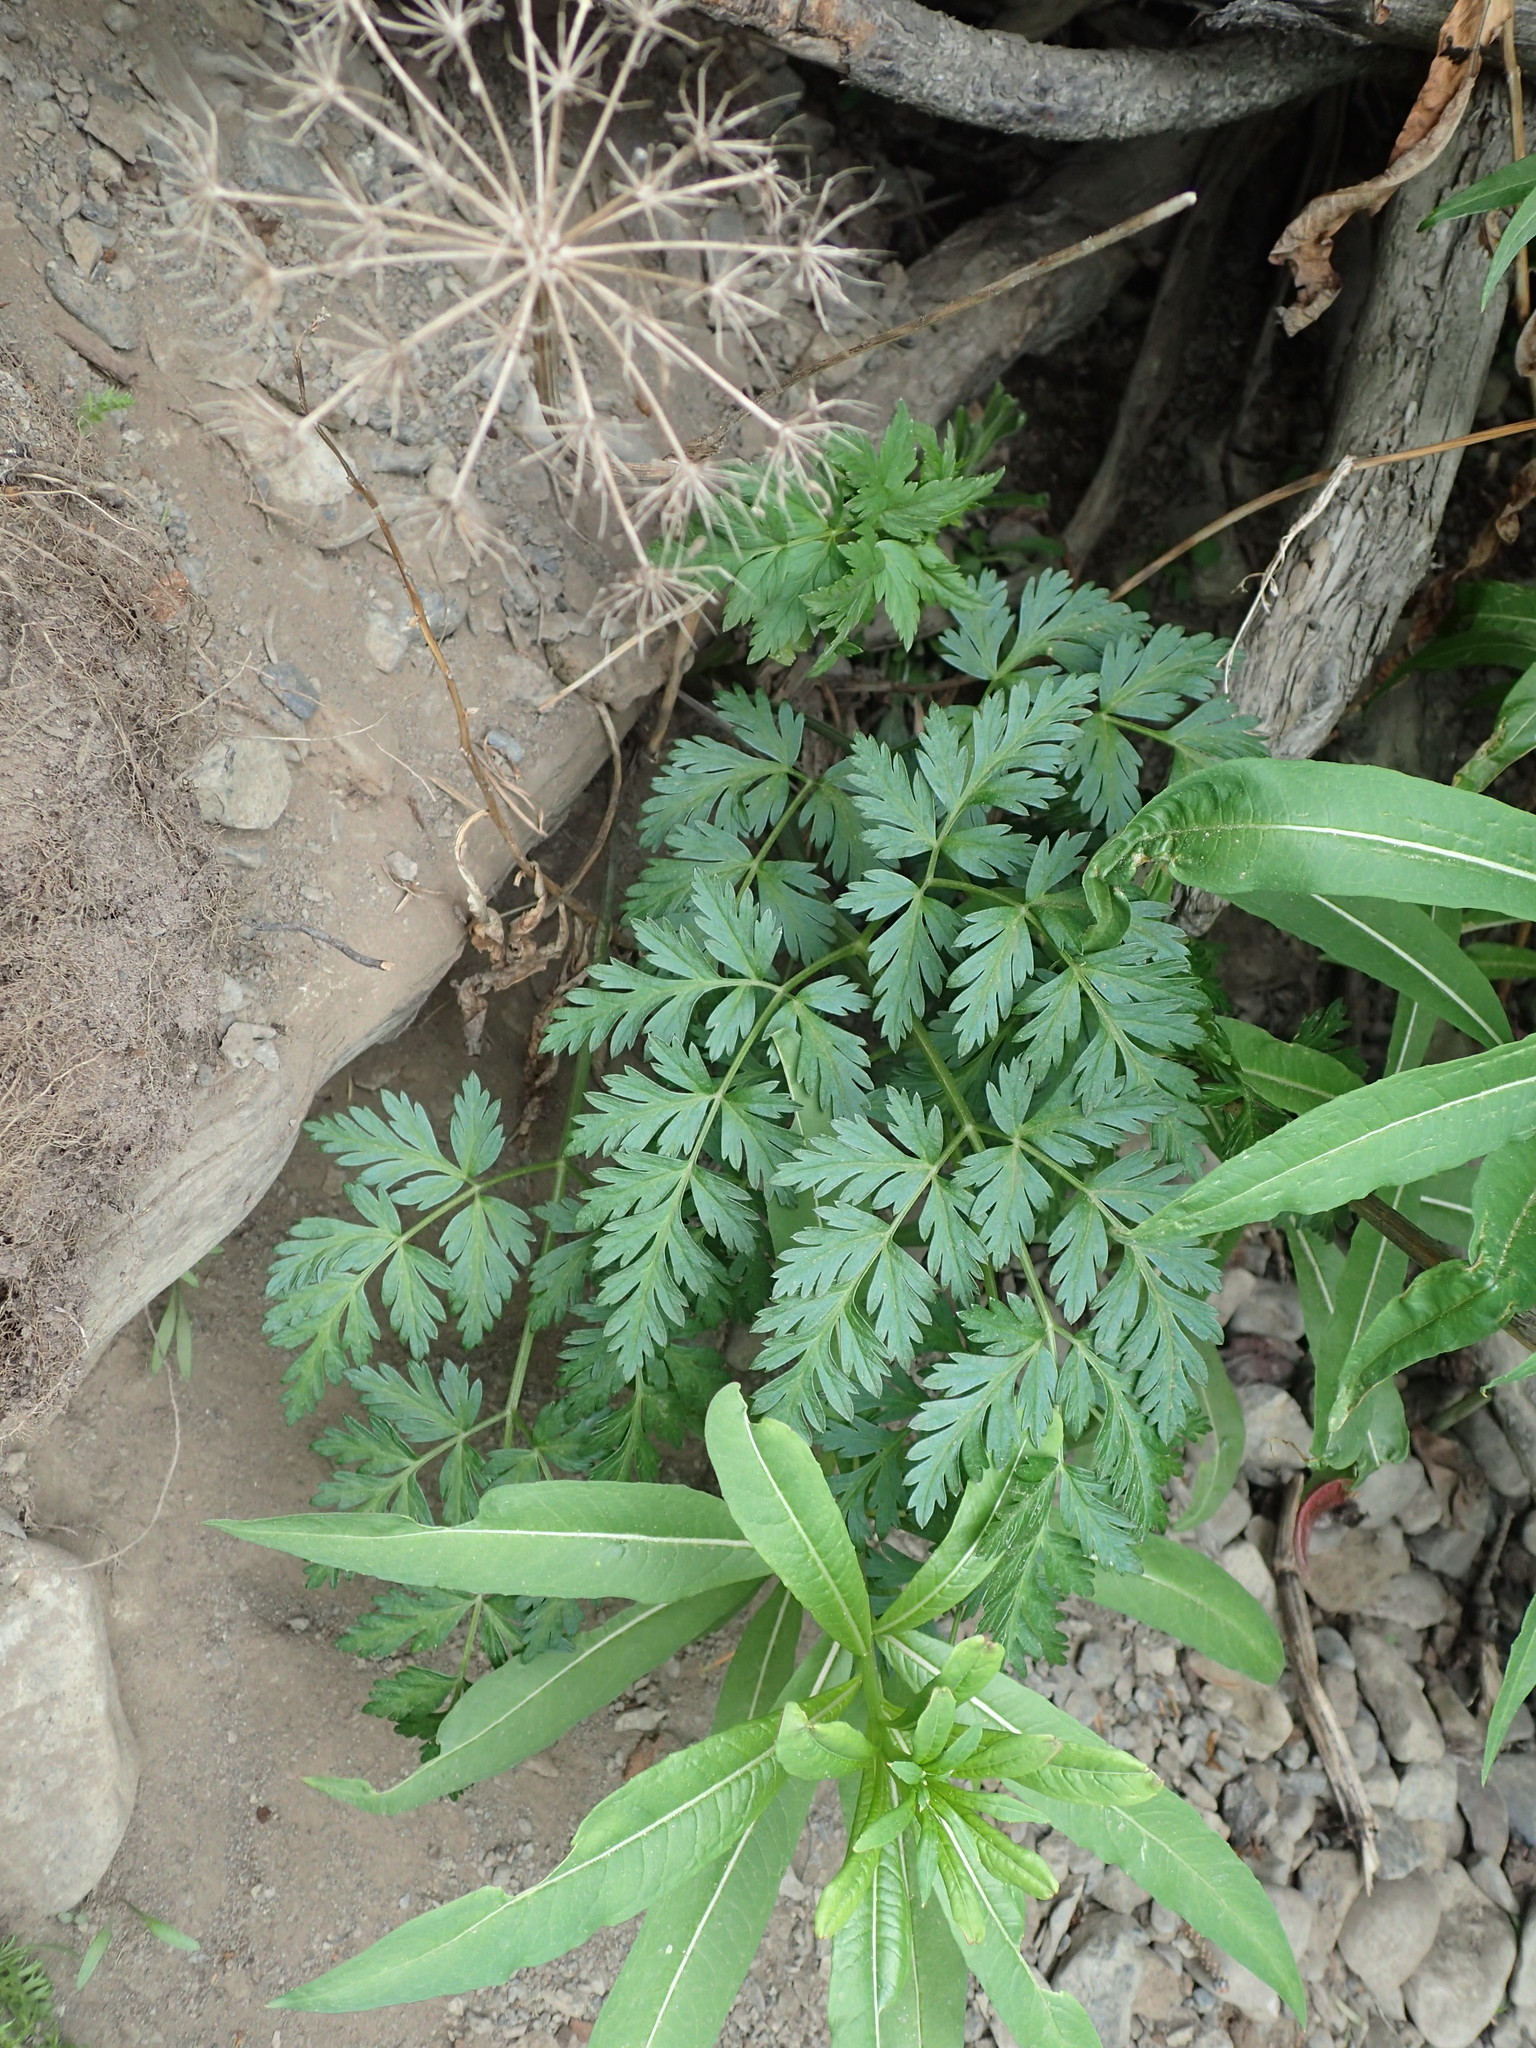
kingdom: Plantae
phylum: Tracheophyta
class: Magnoliopsida
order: Apiales
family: Apiaceae
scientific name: Apiaceae
